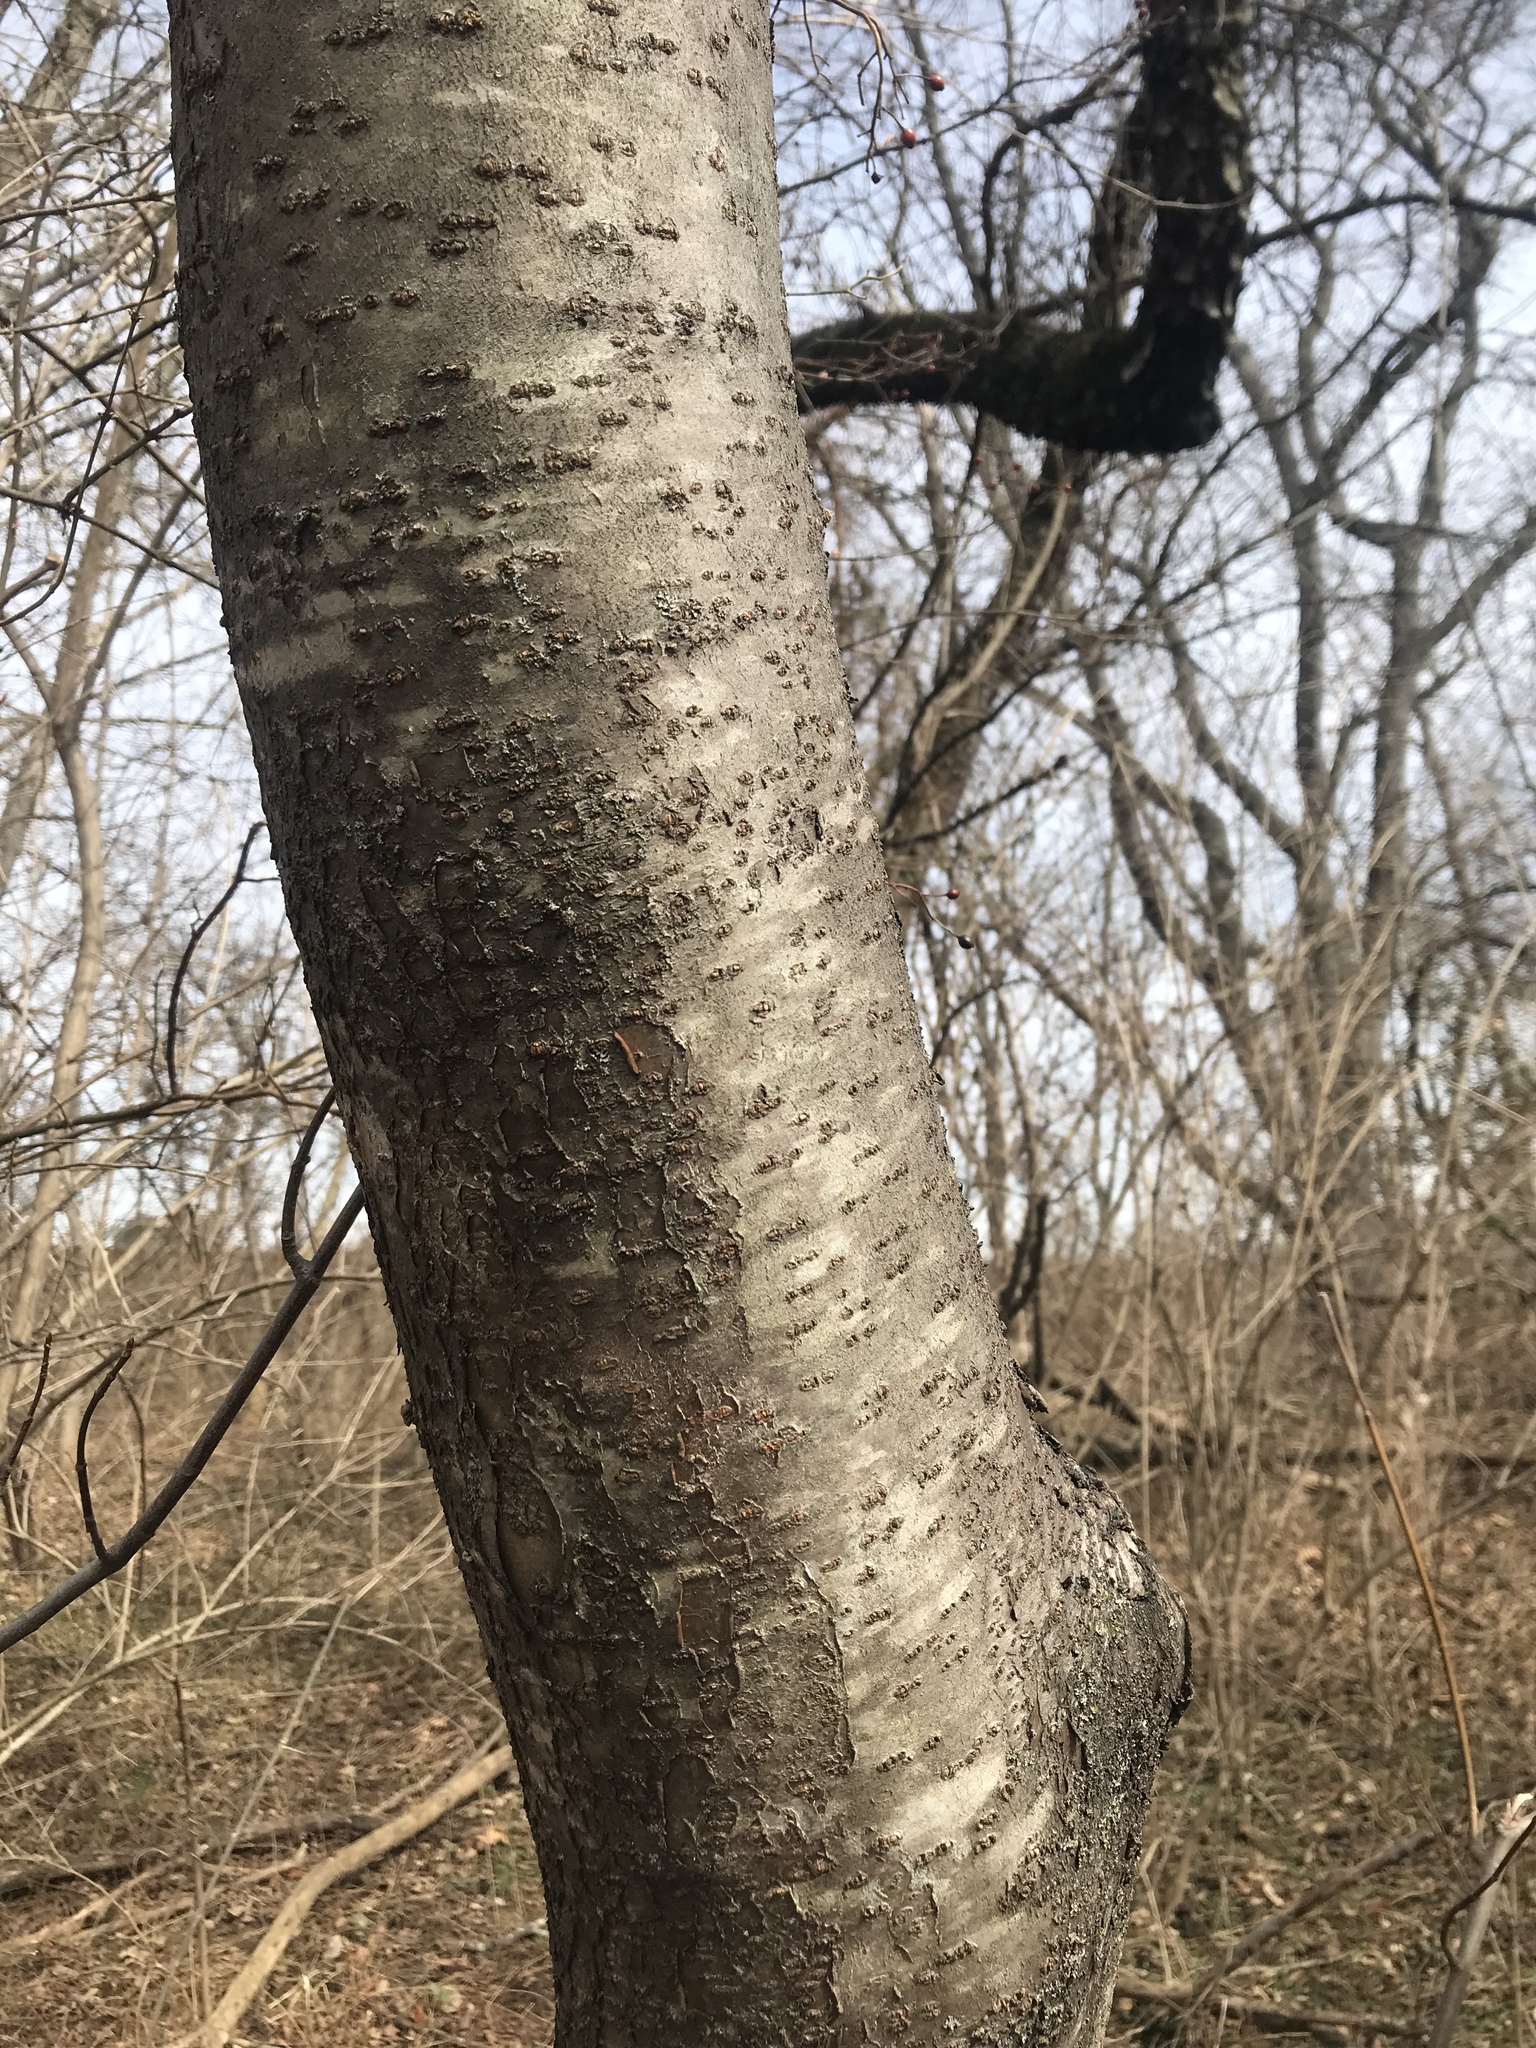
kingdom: Plantae
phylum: Tracheophyta
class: Magnoliopsida
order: Sapindales
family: Anacardiaceae
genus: Rhus
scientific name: Rhus typhina
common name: Staghorn sumac
